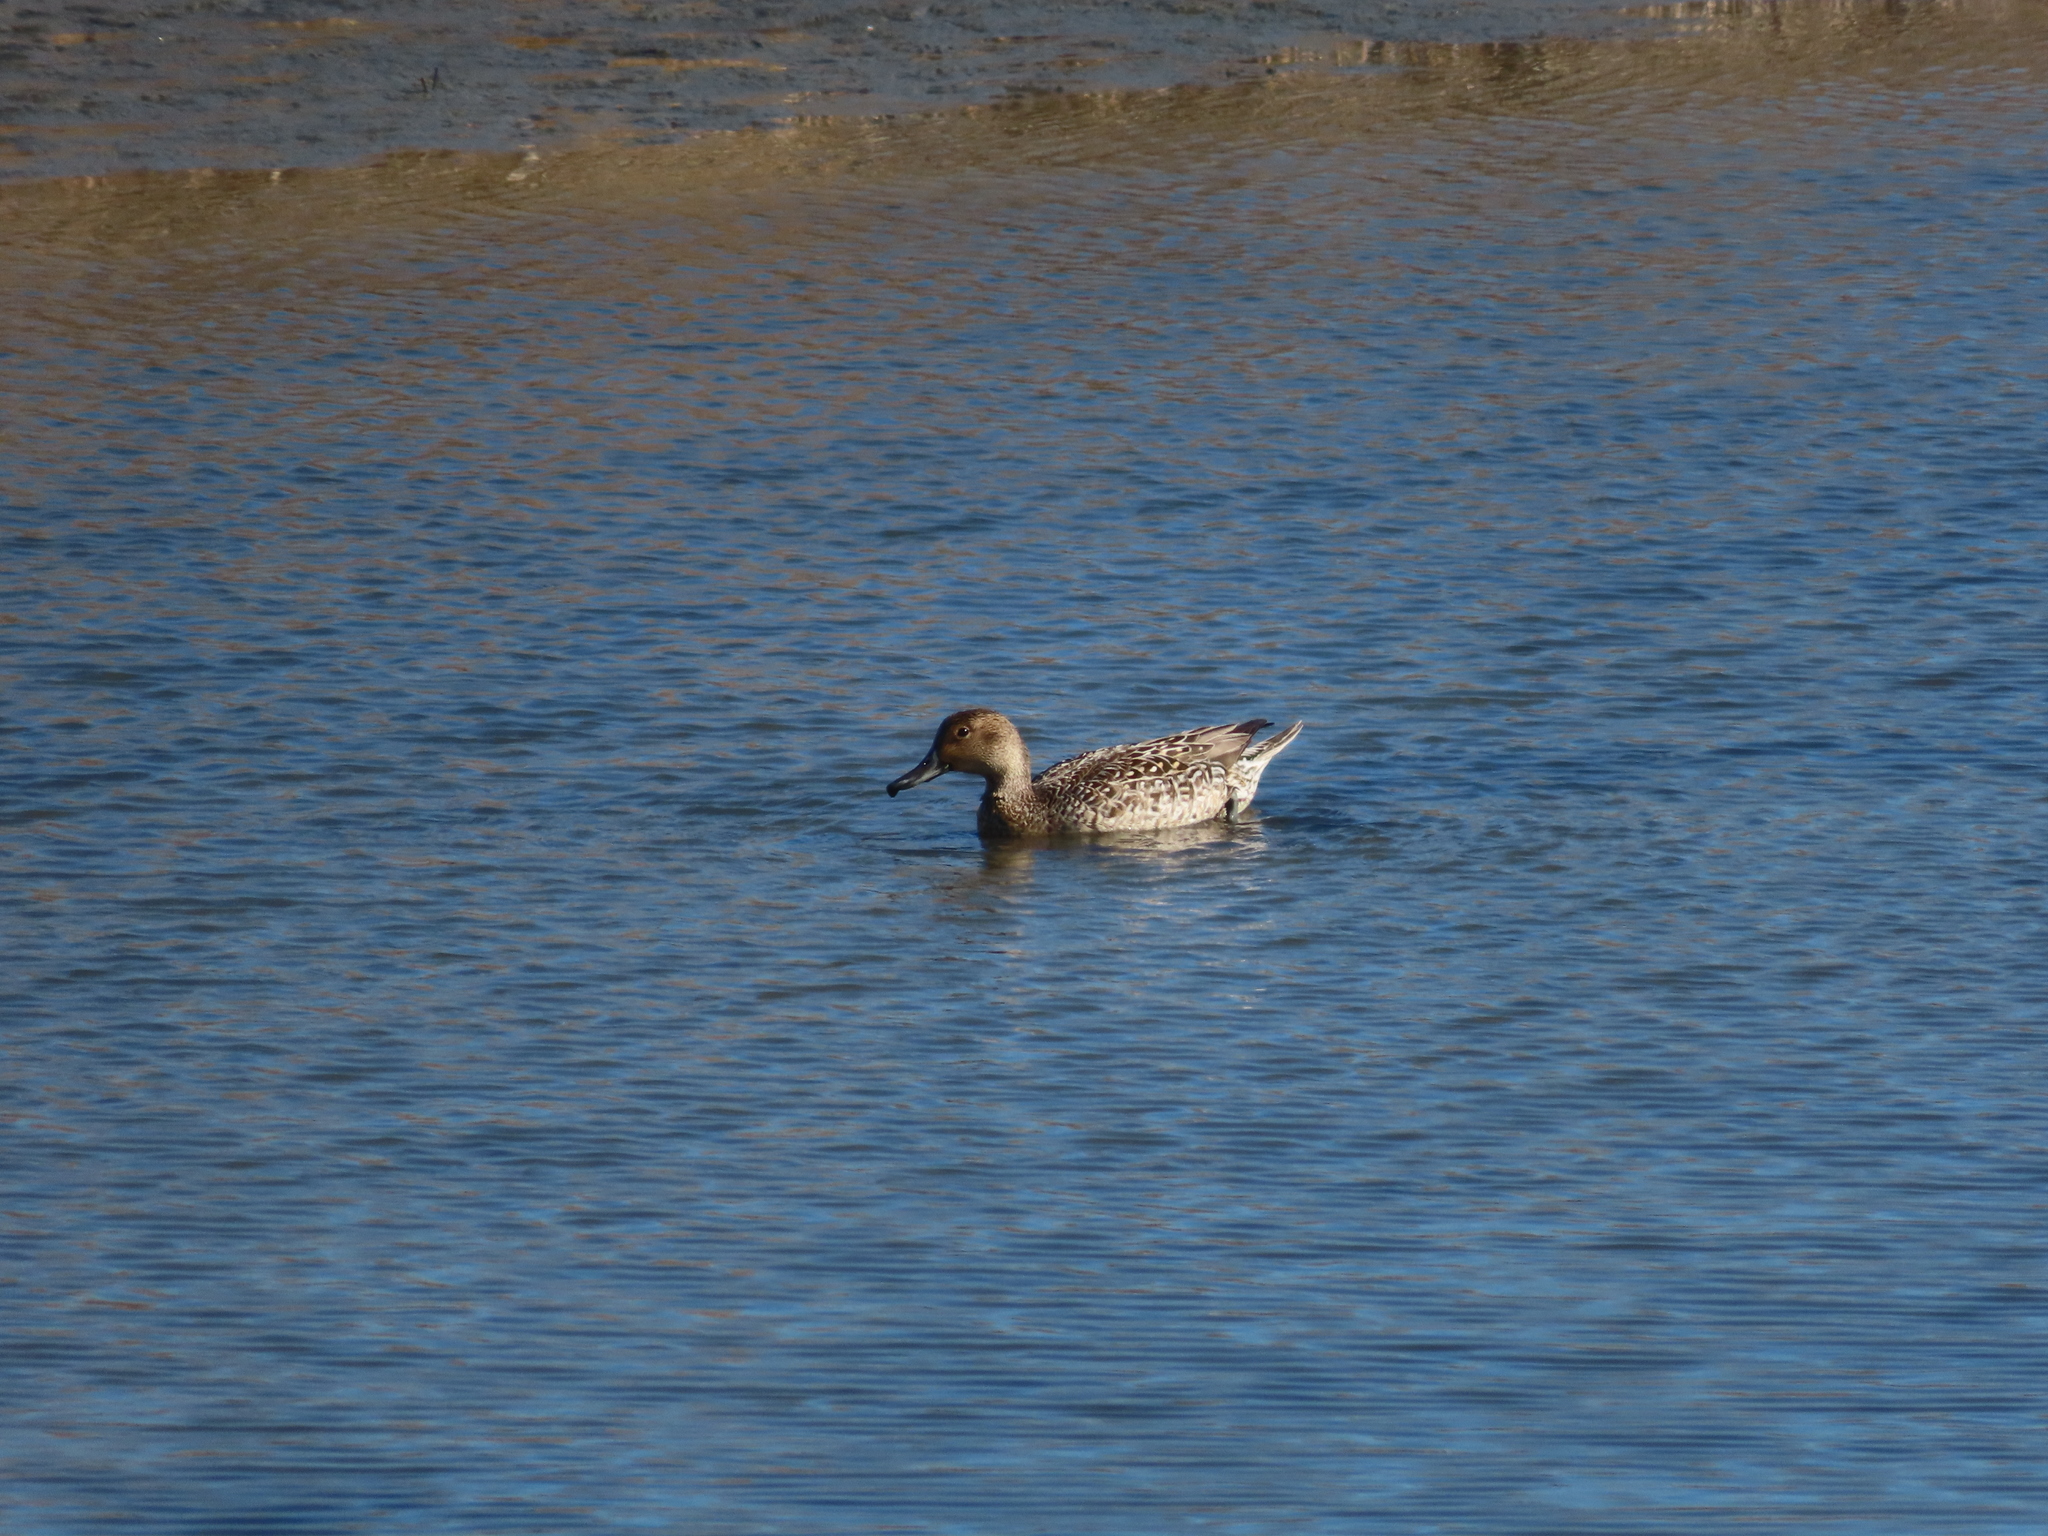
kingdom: Animalia
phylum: Chordata
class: Aves
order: Anseriformes
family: Anatidae
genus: Anas
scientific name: Anas acuta
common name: Northern pintail
